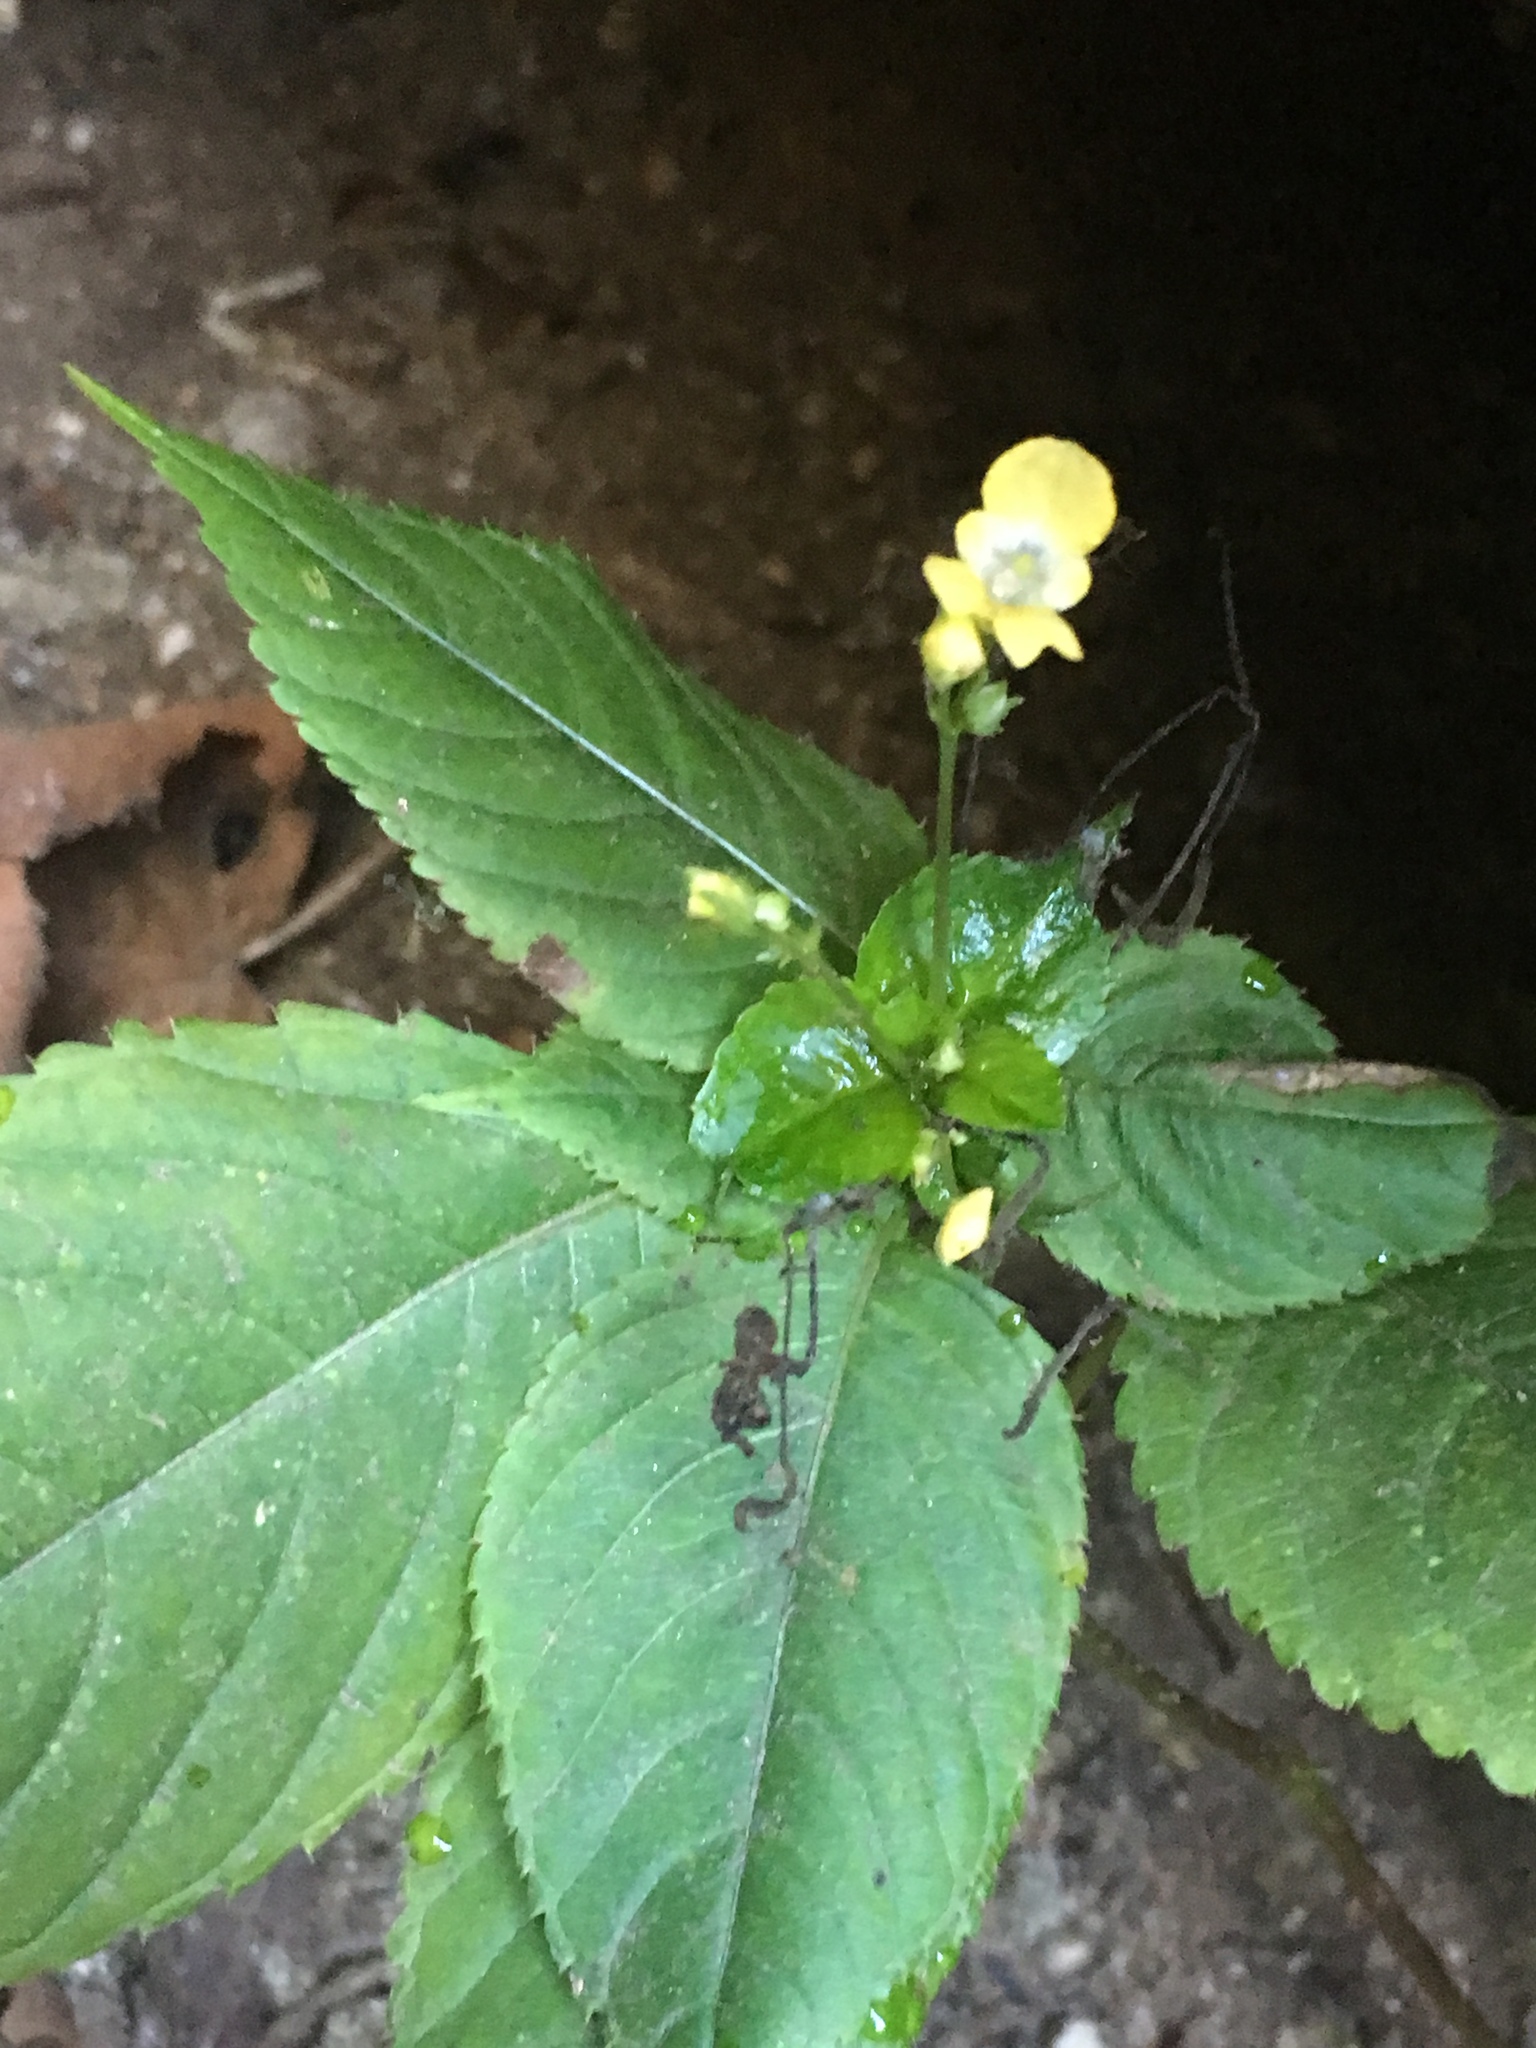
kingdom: Plantae
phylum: Tracheophyta
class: Magnoliopsida
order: Ericales
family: Balsaminaceae
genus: Impatiens
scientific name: Impatiens parviflora
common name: Small balsam
